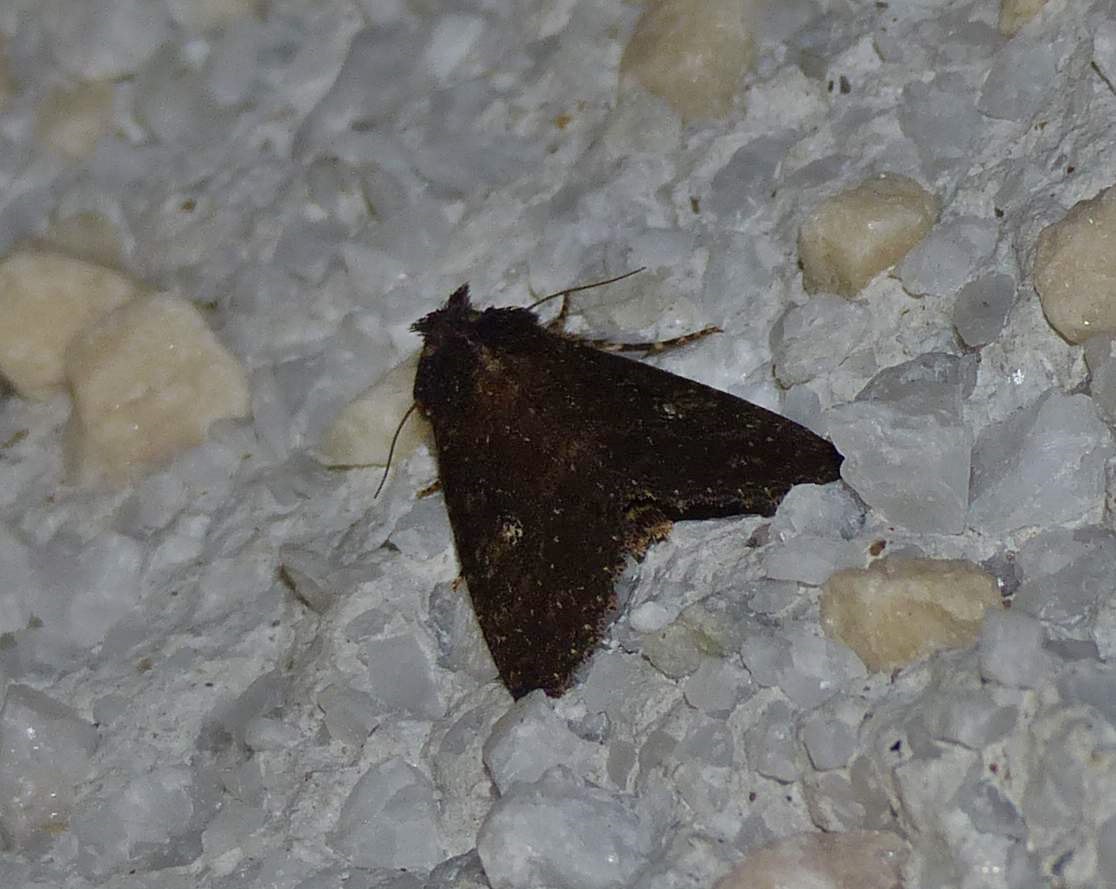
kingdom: Animalia
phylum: Arthropoda
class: Insecta
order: Lepidoptera
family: Noctuidae
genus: Condica
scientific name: Condica vecors
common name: Dusky groundling
